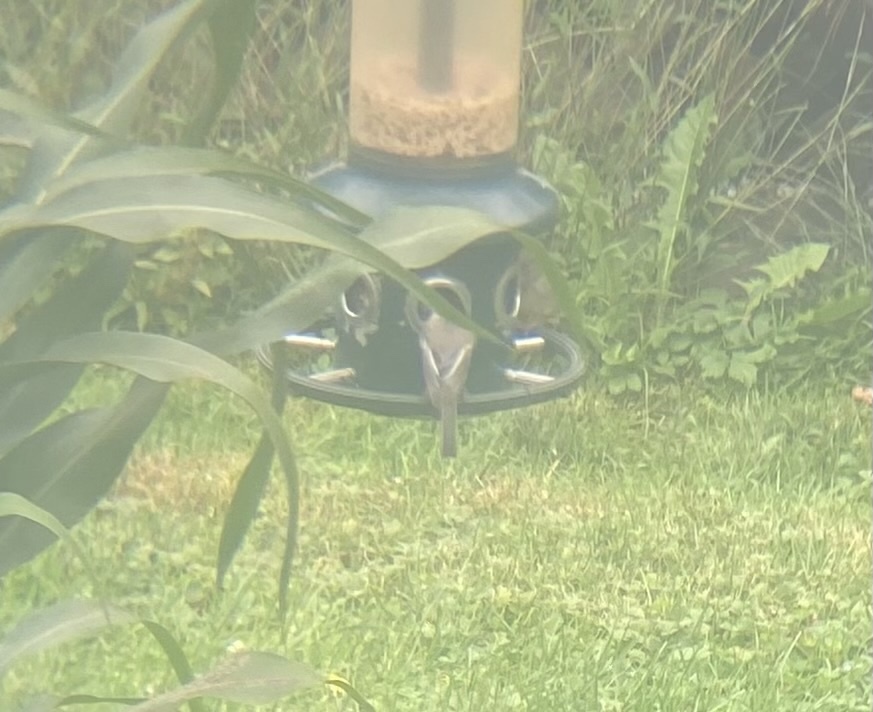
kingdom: Animalia
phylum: Chordata
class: Aves
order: Passeriformes
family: Paridae
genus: Poecile
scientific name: Poecile atricapillus
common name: Black-capped chickadee
